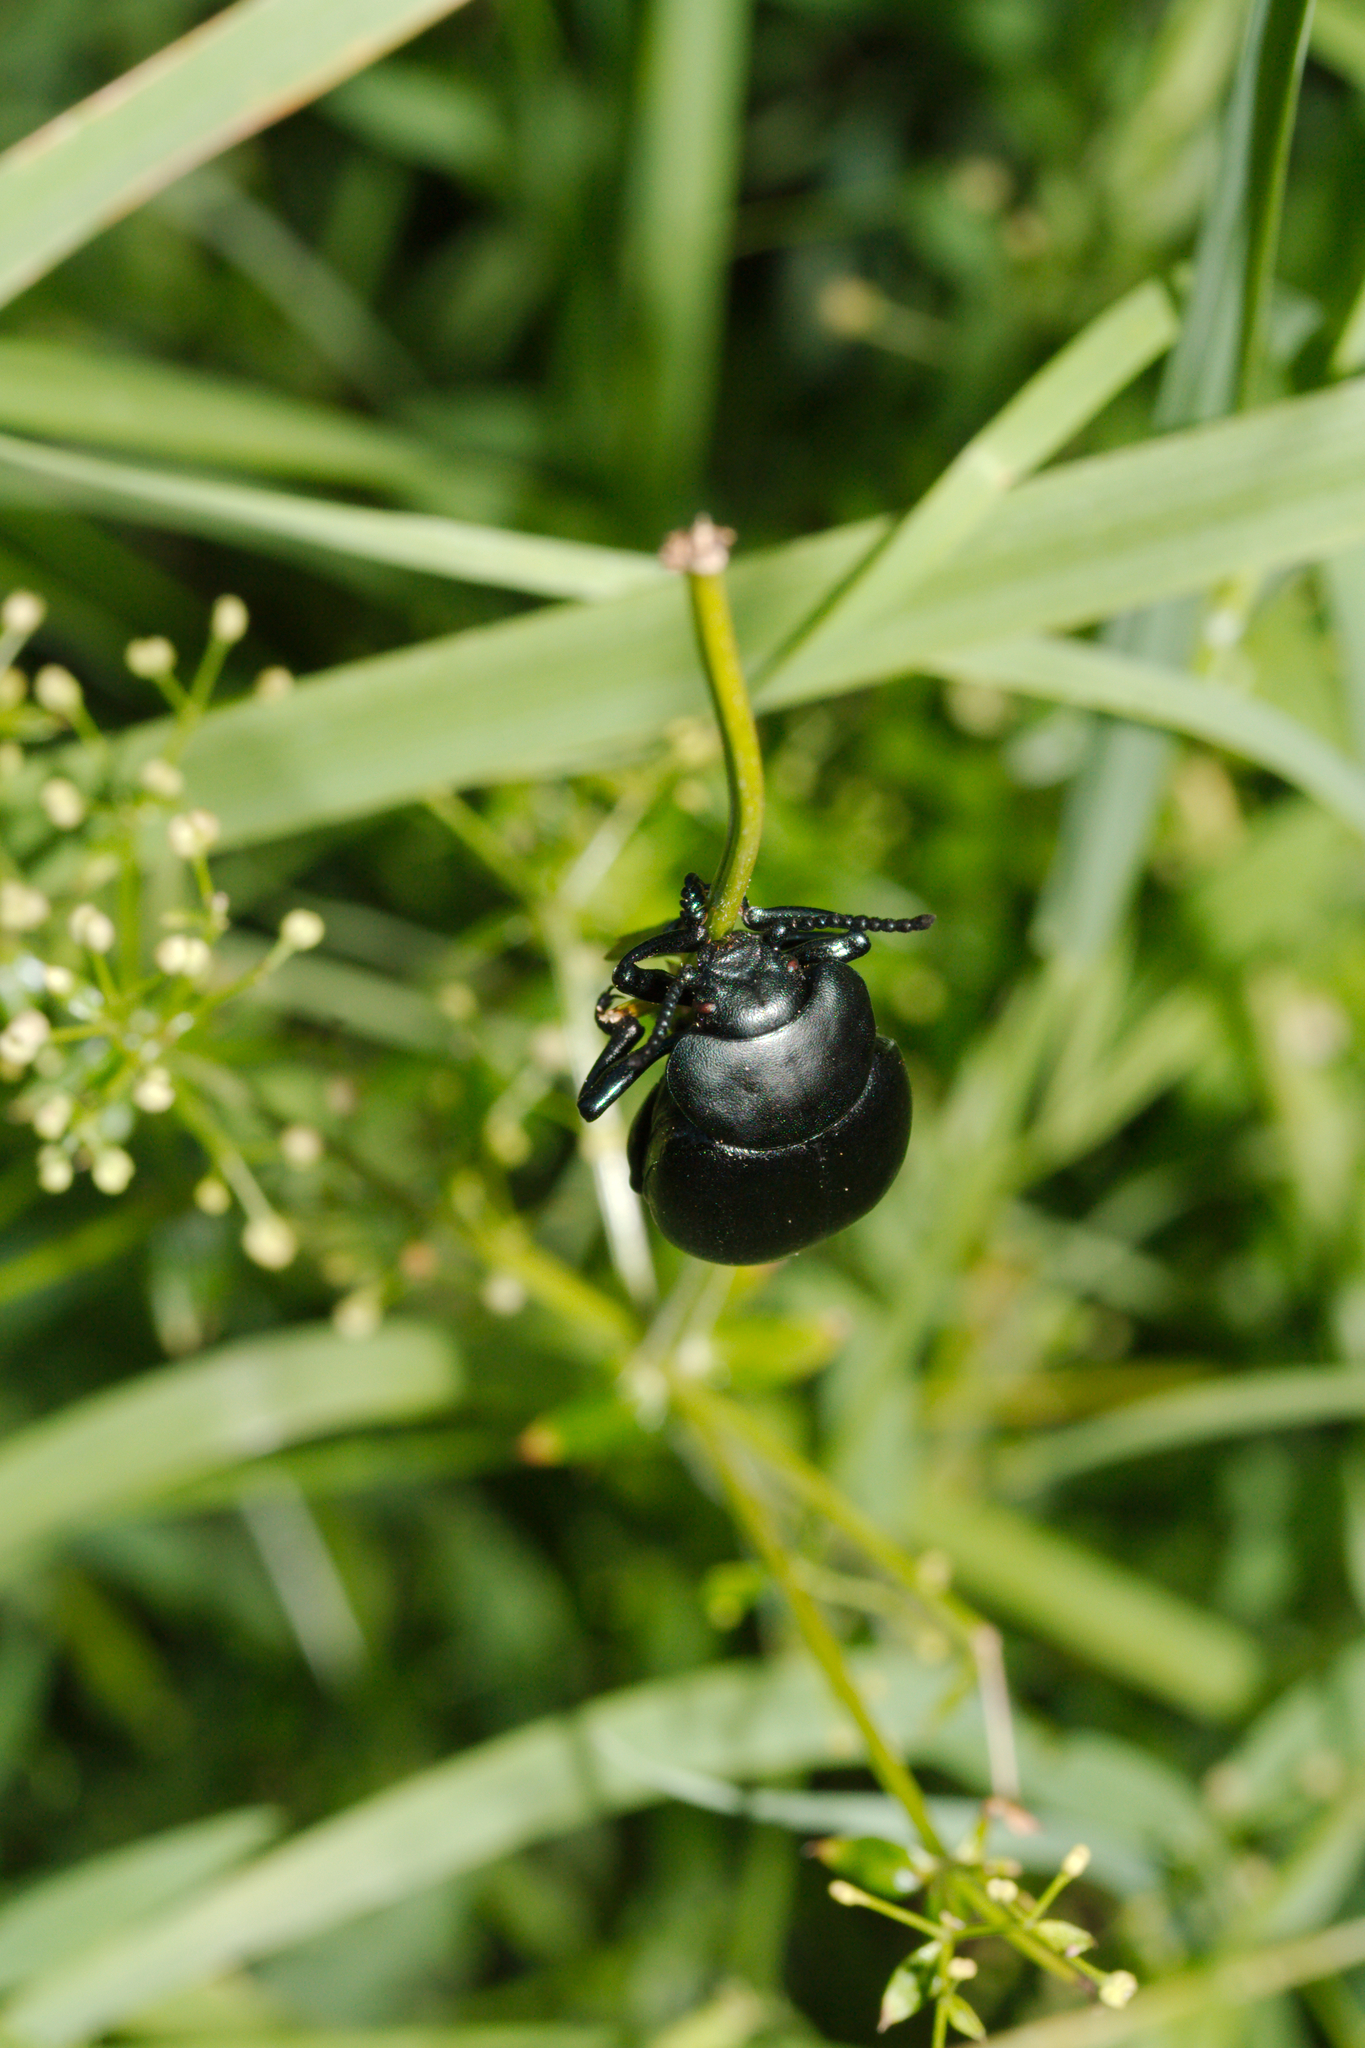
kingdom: Animalia
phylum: Arthropoda
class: Insecta
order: Coleoptera
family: Chrysomelidae
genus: Timarcha
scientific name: Timarcha tenebricosa
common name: Bloody-nosed beetle
